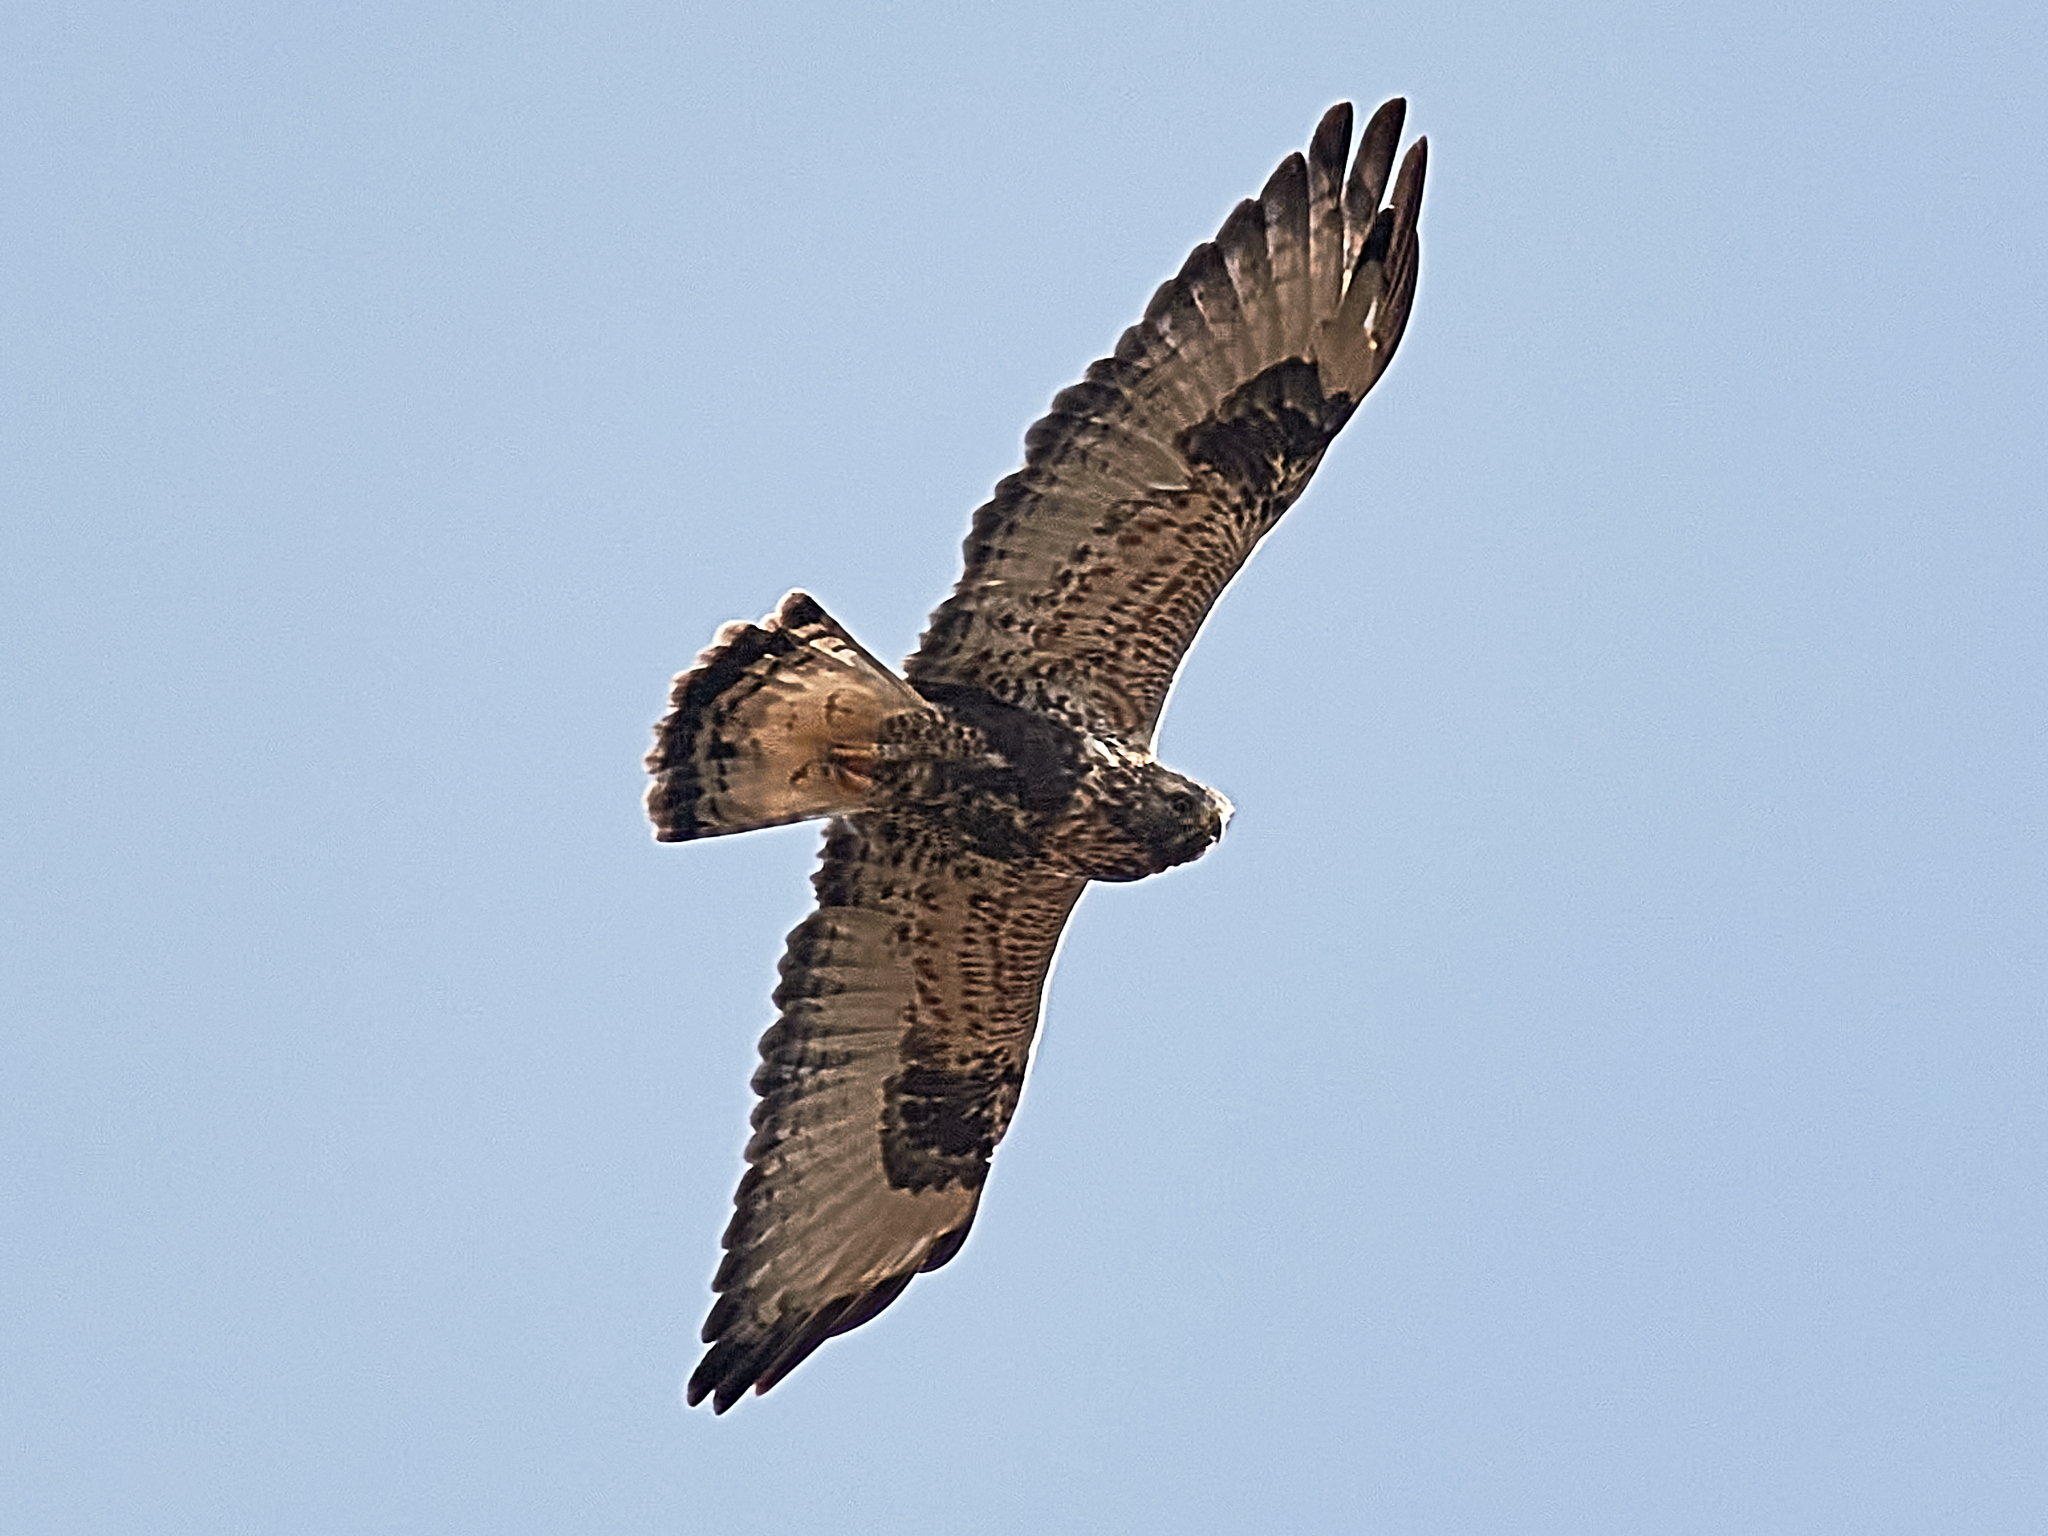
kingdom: Animalia
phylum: Chordata
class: Aves
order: Accipitriformes
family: Accipitridae
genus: Buteo
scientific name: Buteo lagopus
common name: Rough-legged buzzard
